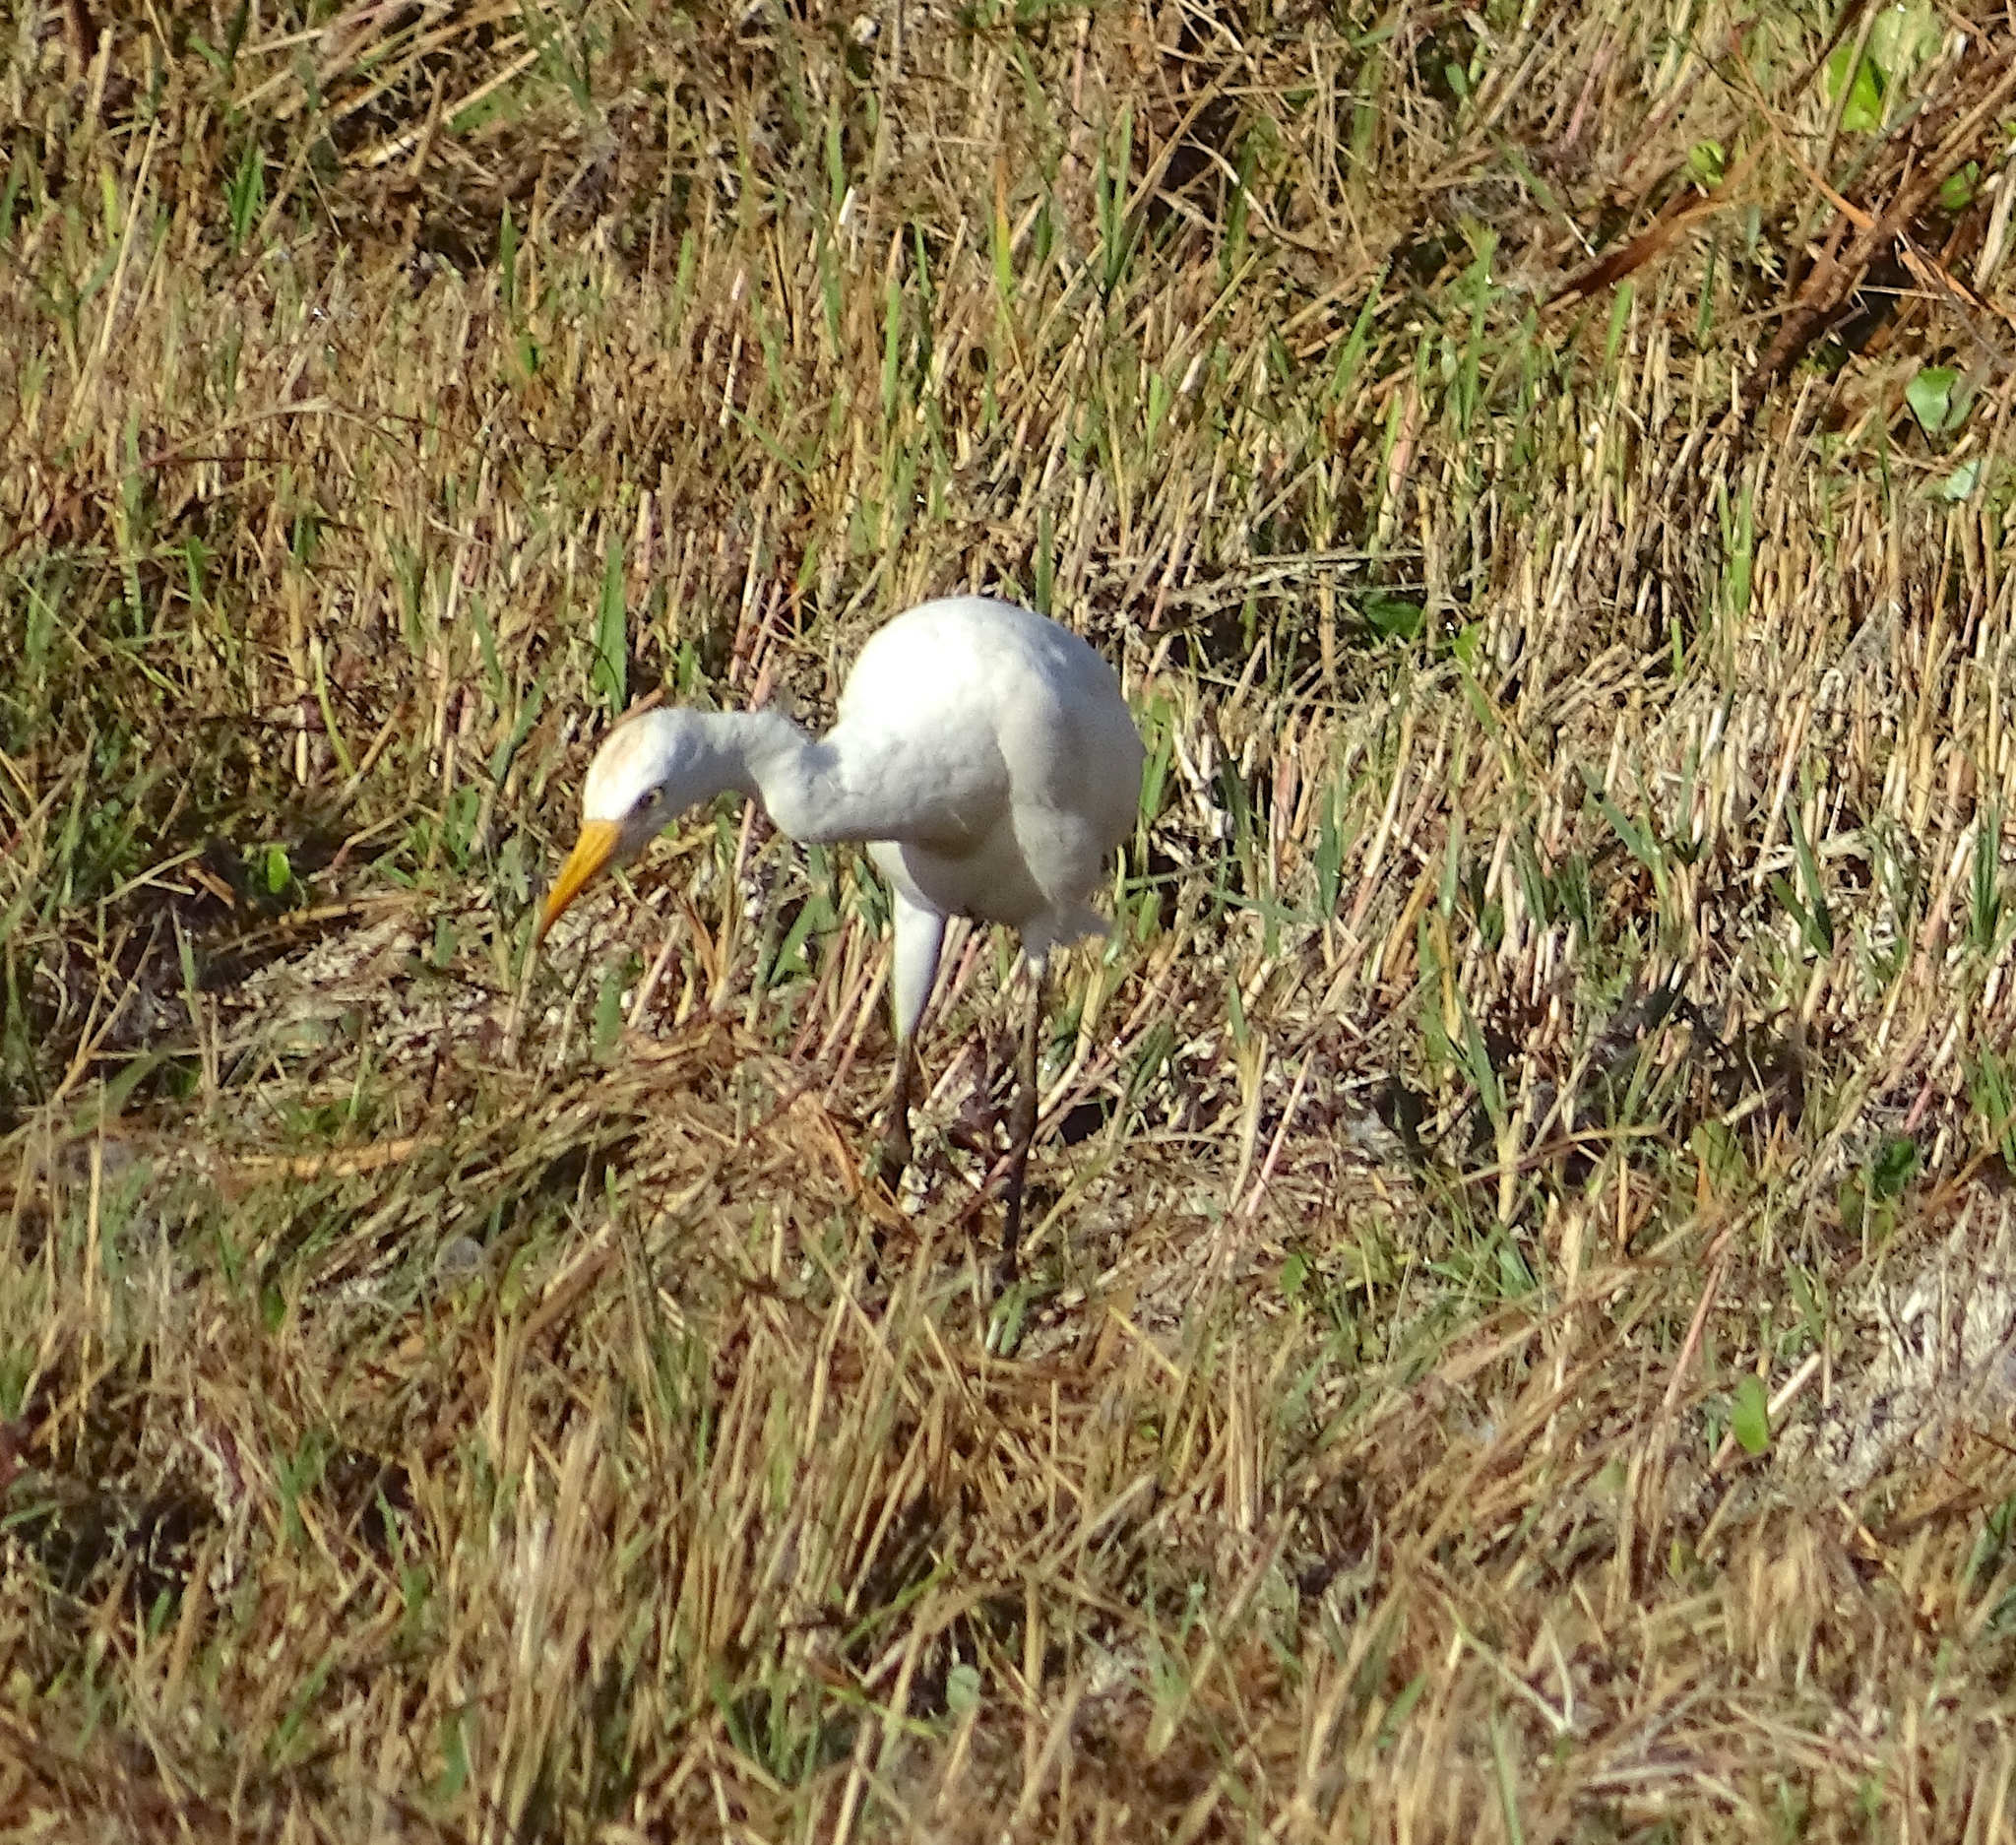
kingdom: Animalia
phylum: Chordata
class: Aves
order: Pelecaniformes
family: Ardeidae
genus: Bubulcus
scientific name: Bubulcus ibis
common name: Cattle egret
